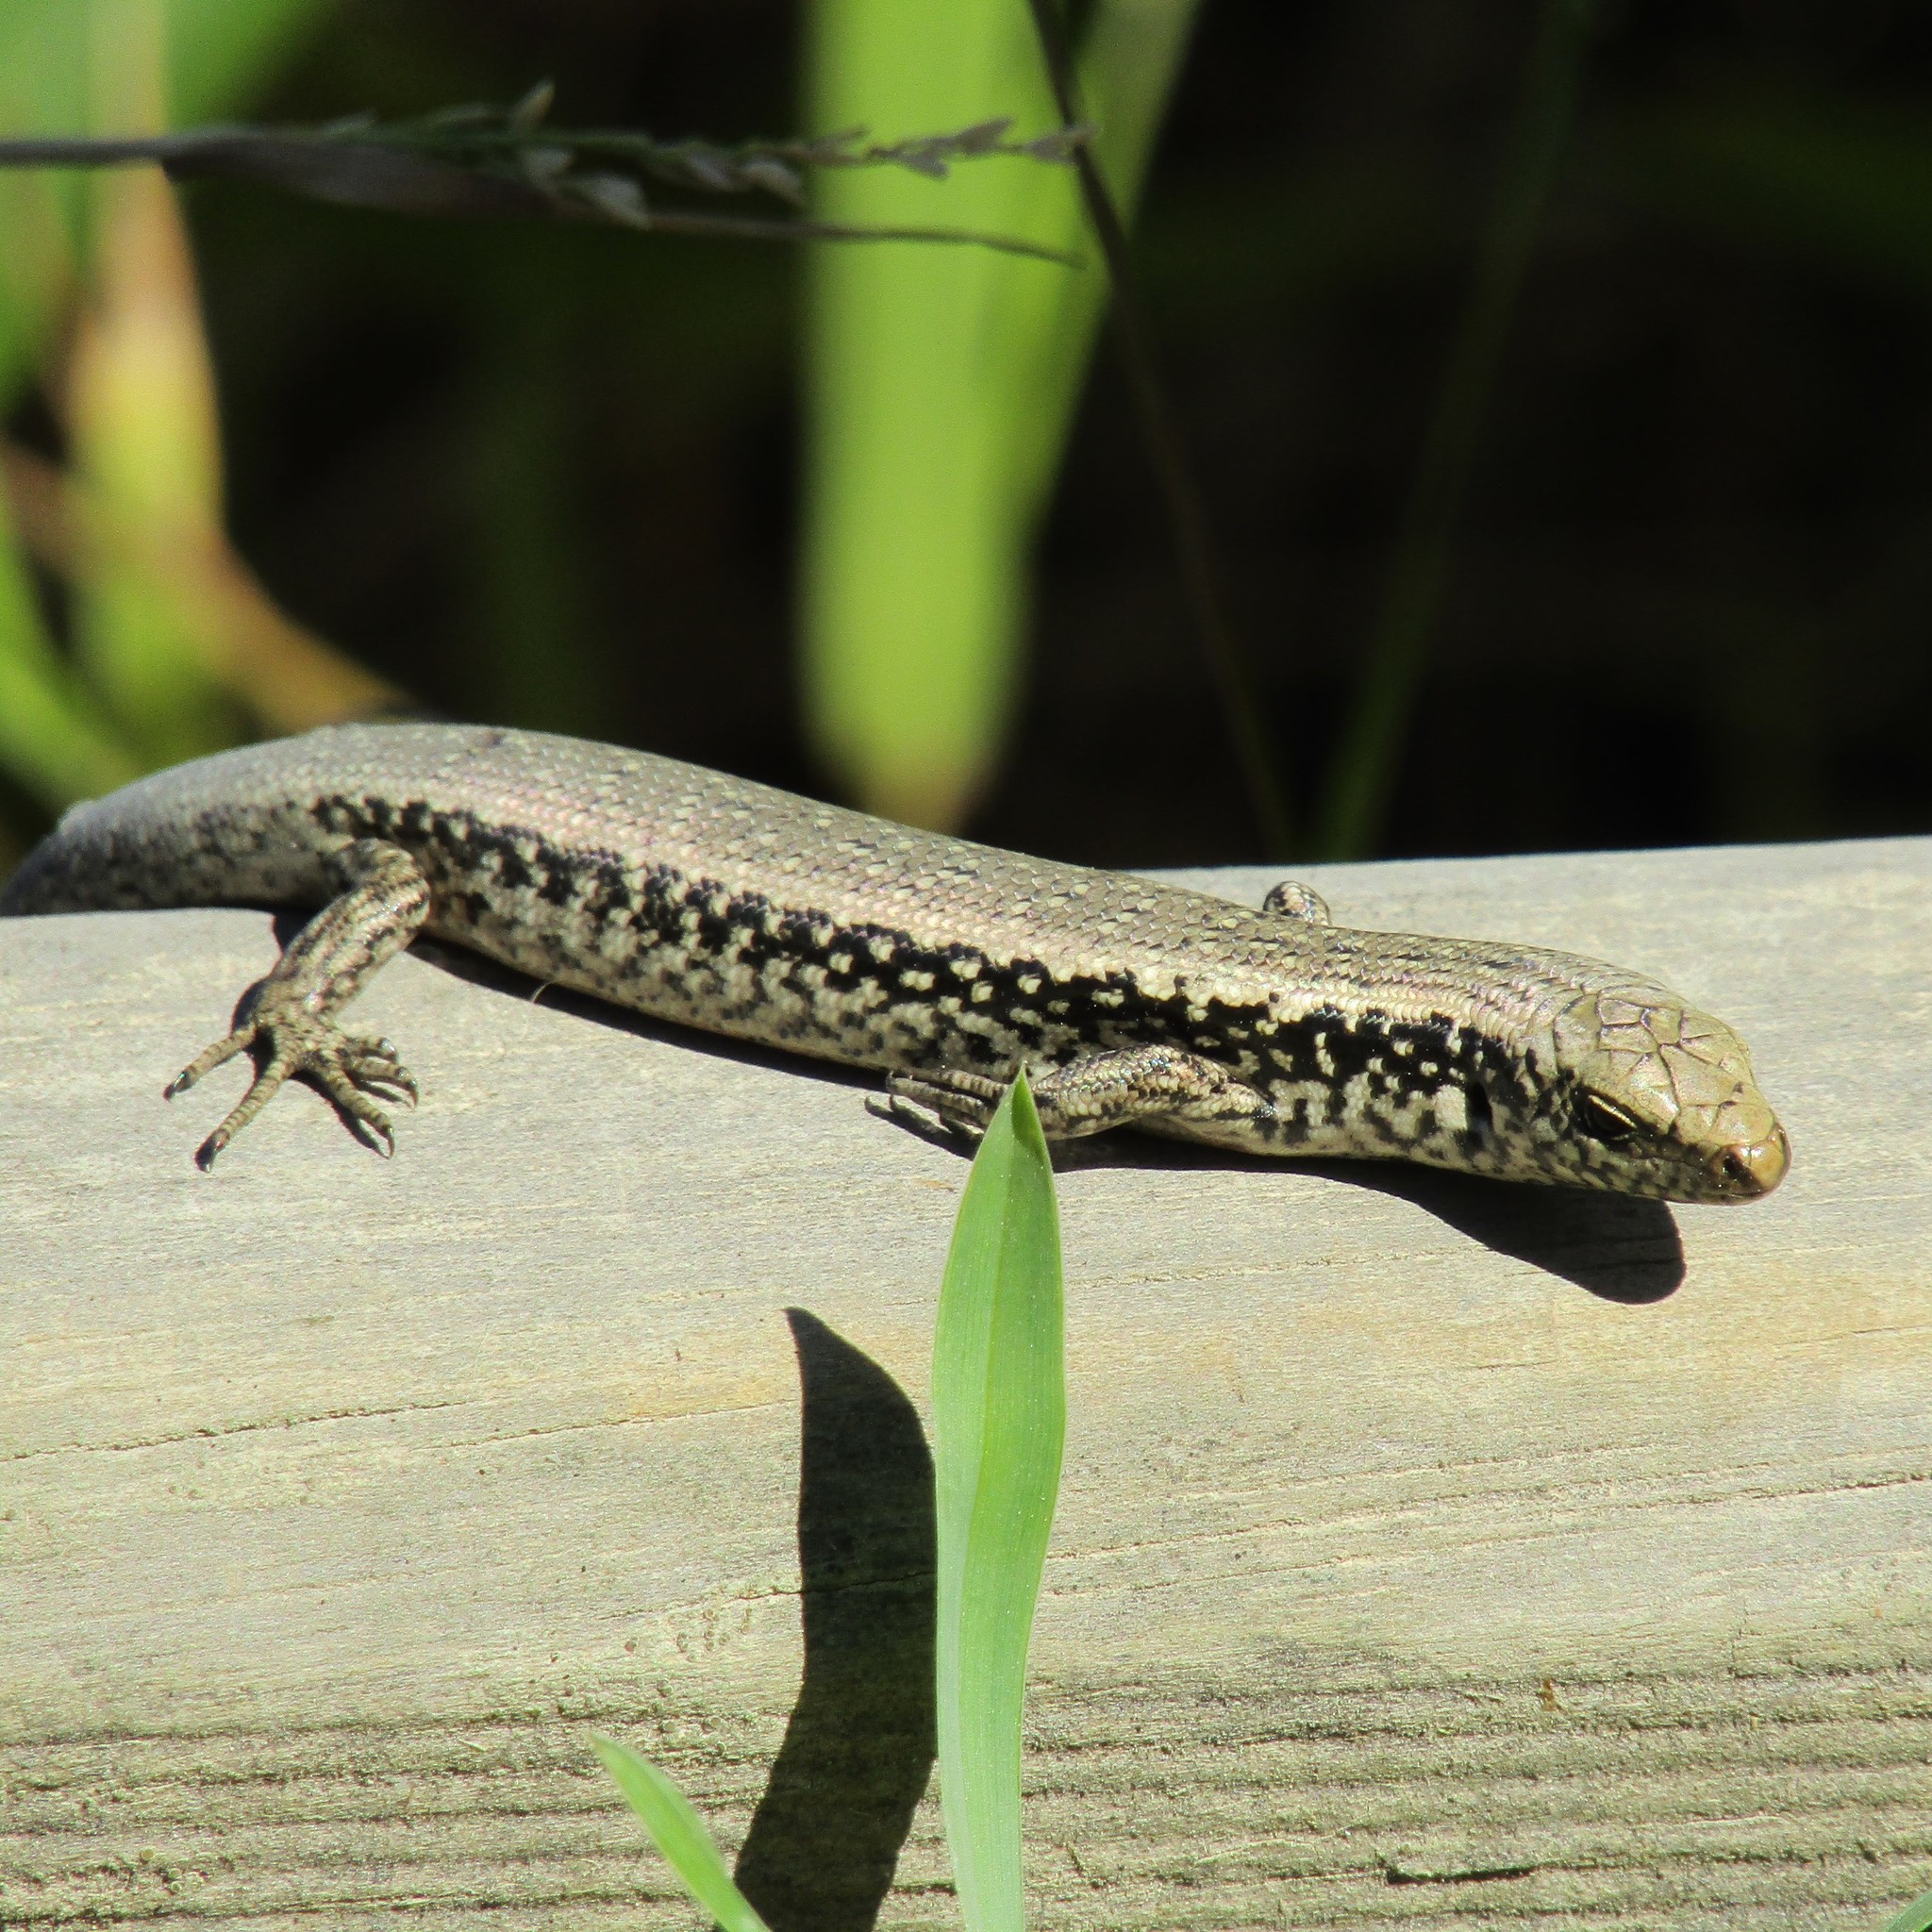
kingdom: Animalia
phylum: Chordata
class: Squamata
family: Scincidae
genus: Oligosoma
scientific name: Oligosoma kokowai
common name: Northern spotted skink
